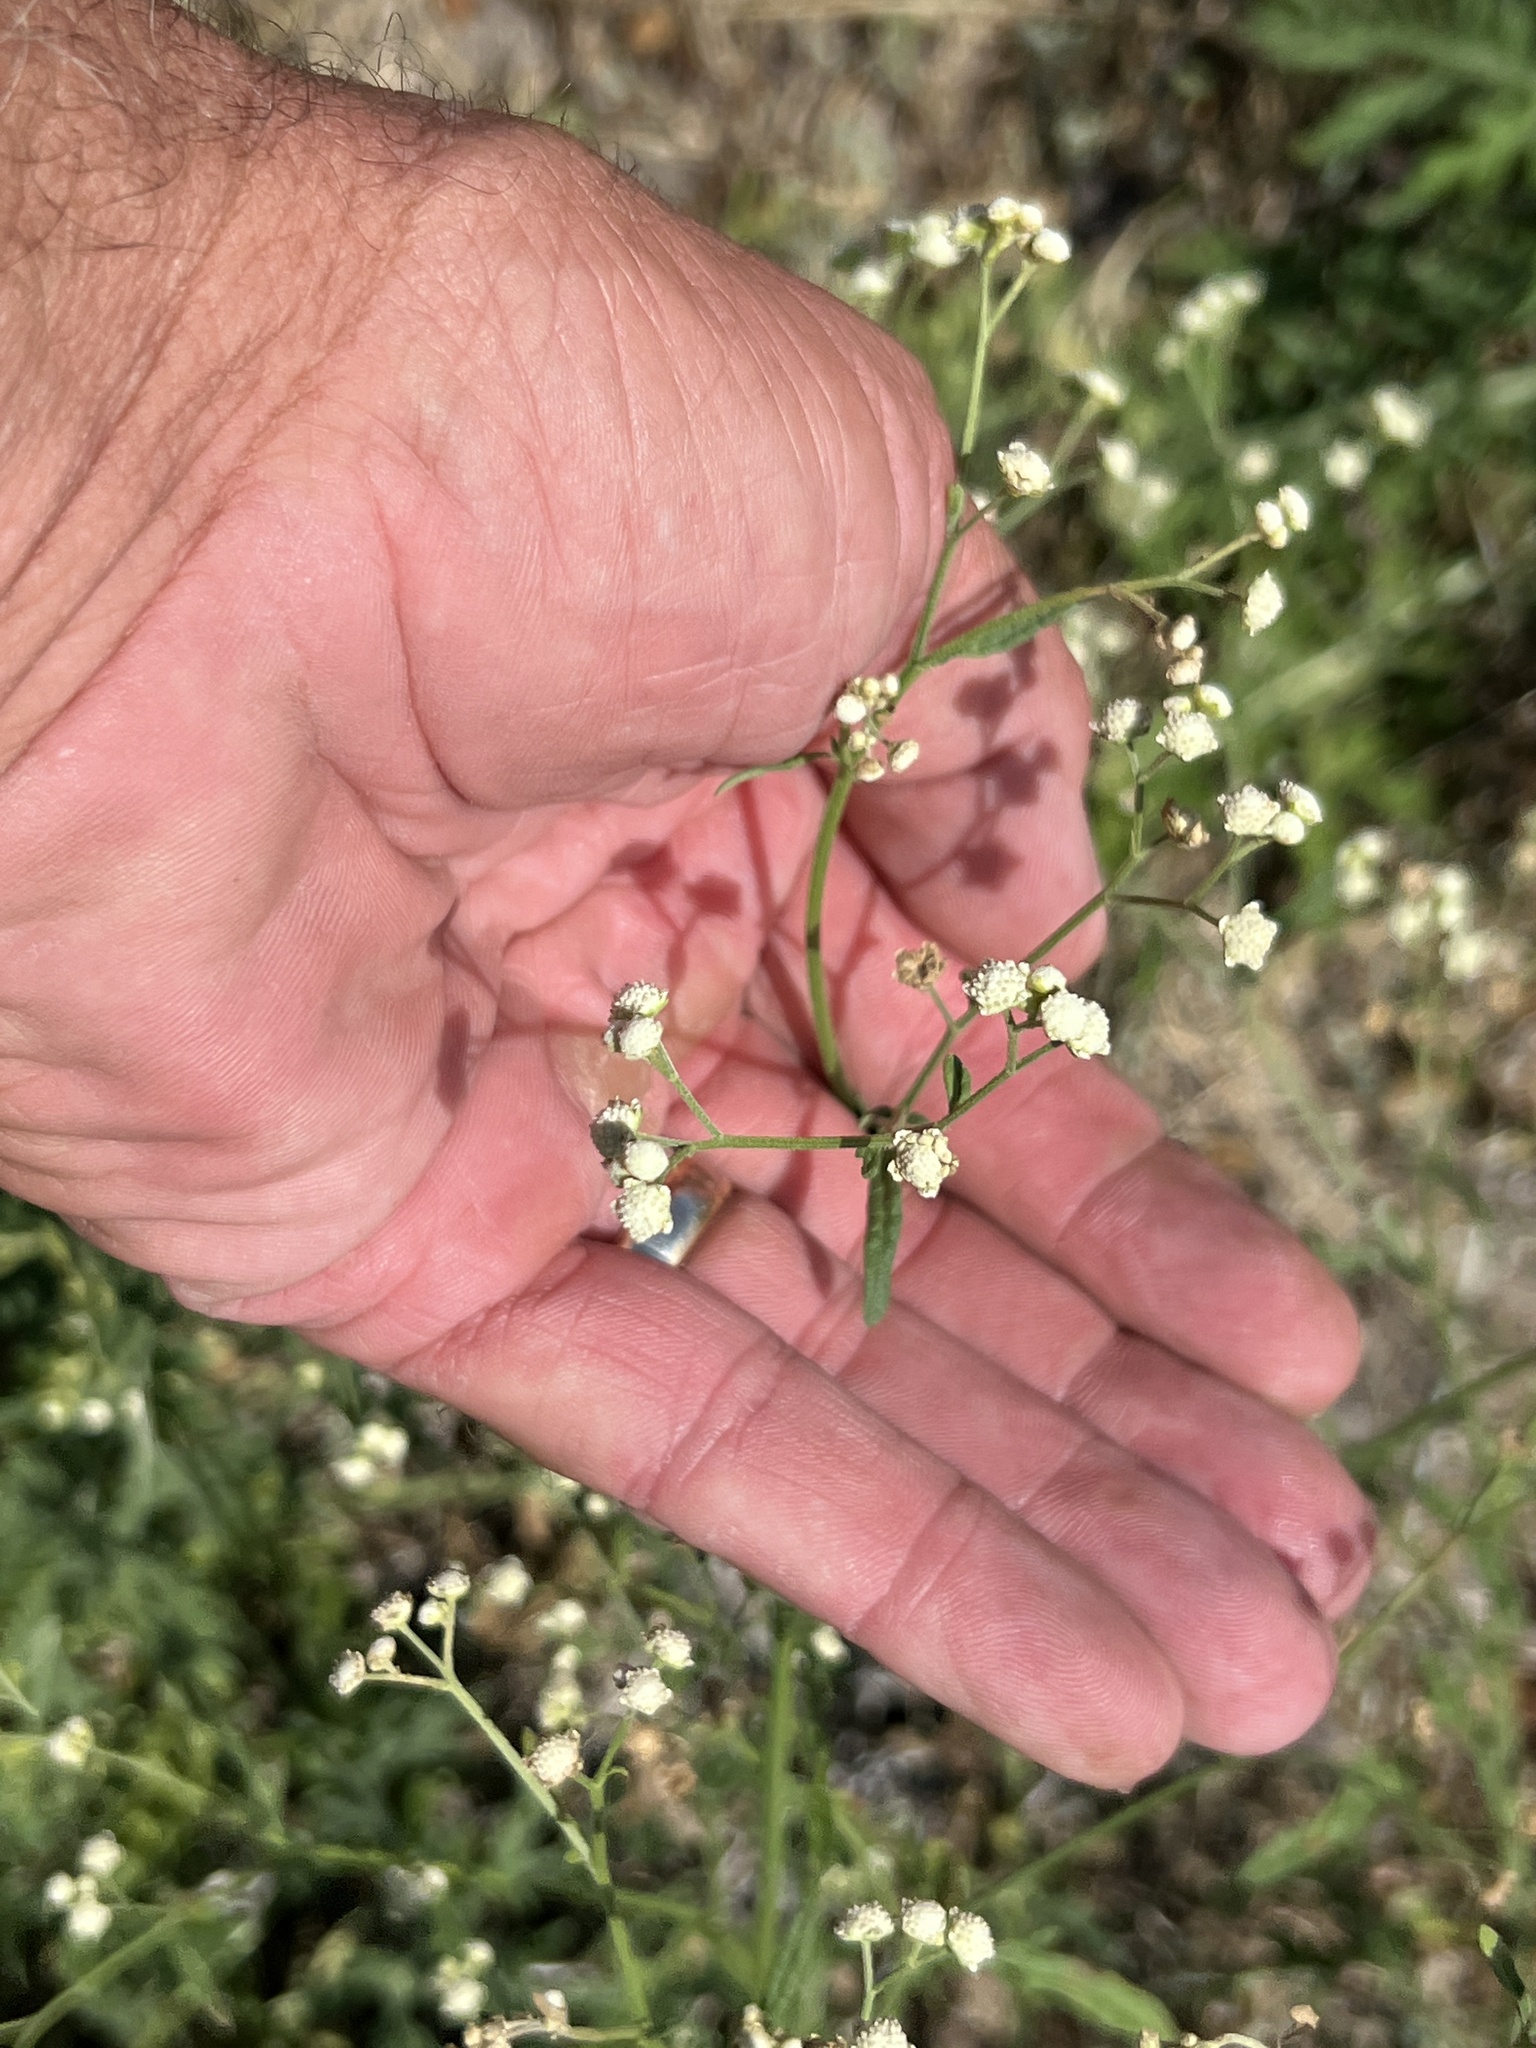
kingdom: Plantae
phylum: Tracheophyta
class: Magnoliopsida
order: Asterales
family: Asteraceae
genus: Parthenium
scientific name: Parthenium hysterophorus
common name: Santa maria feverfew
